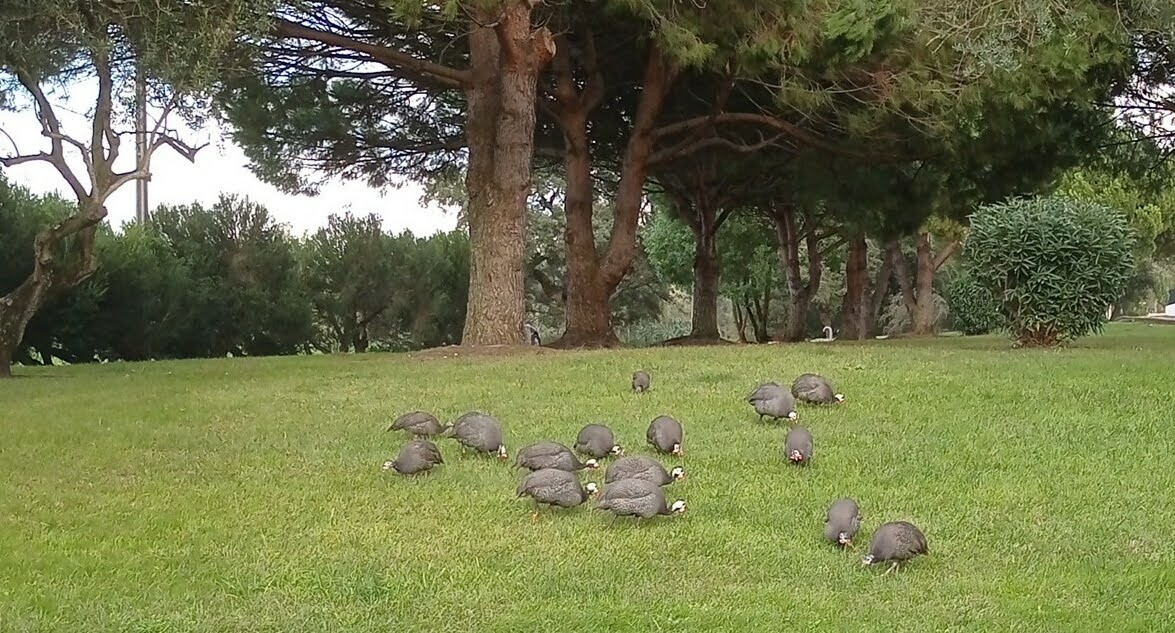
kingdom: Animalia
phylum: Chordata
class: Aves
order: Galliformes
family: Numididae
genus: Numida
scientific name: Numida meleagris
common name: Helmeted guineafowl
